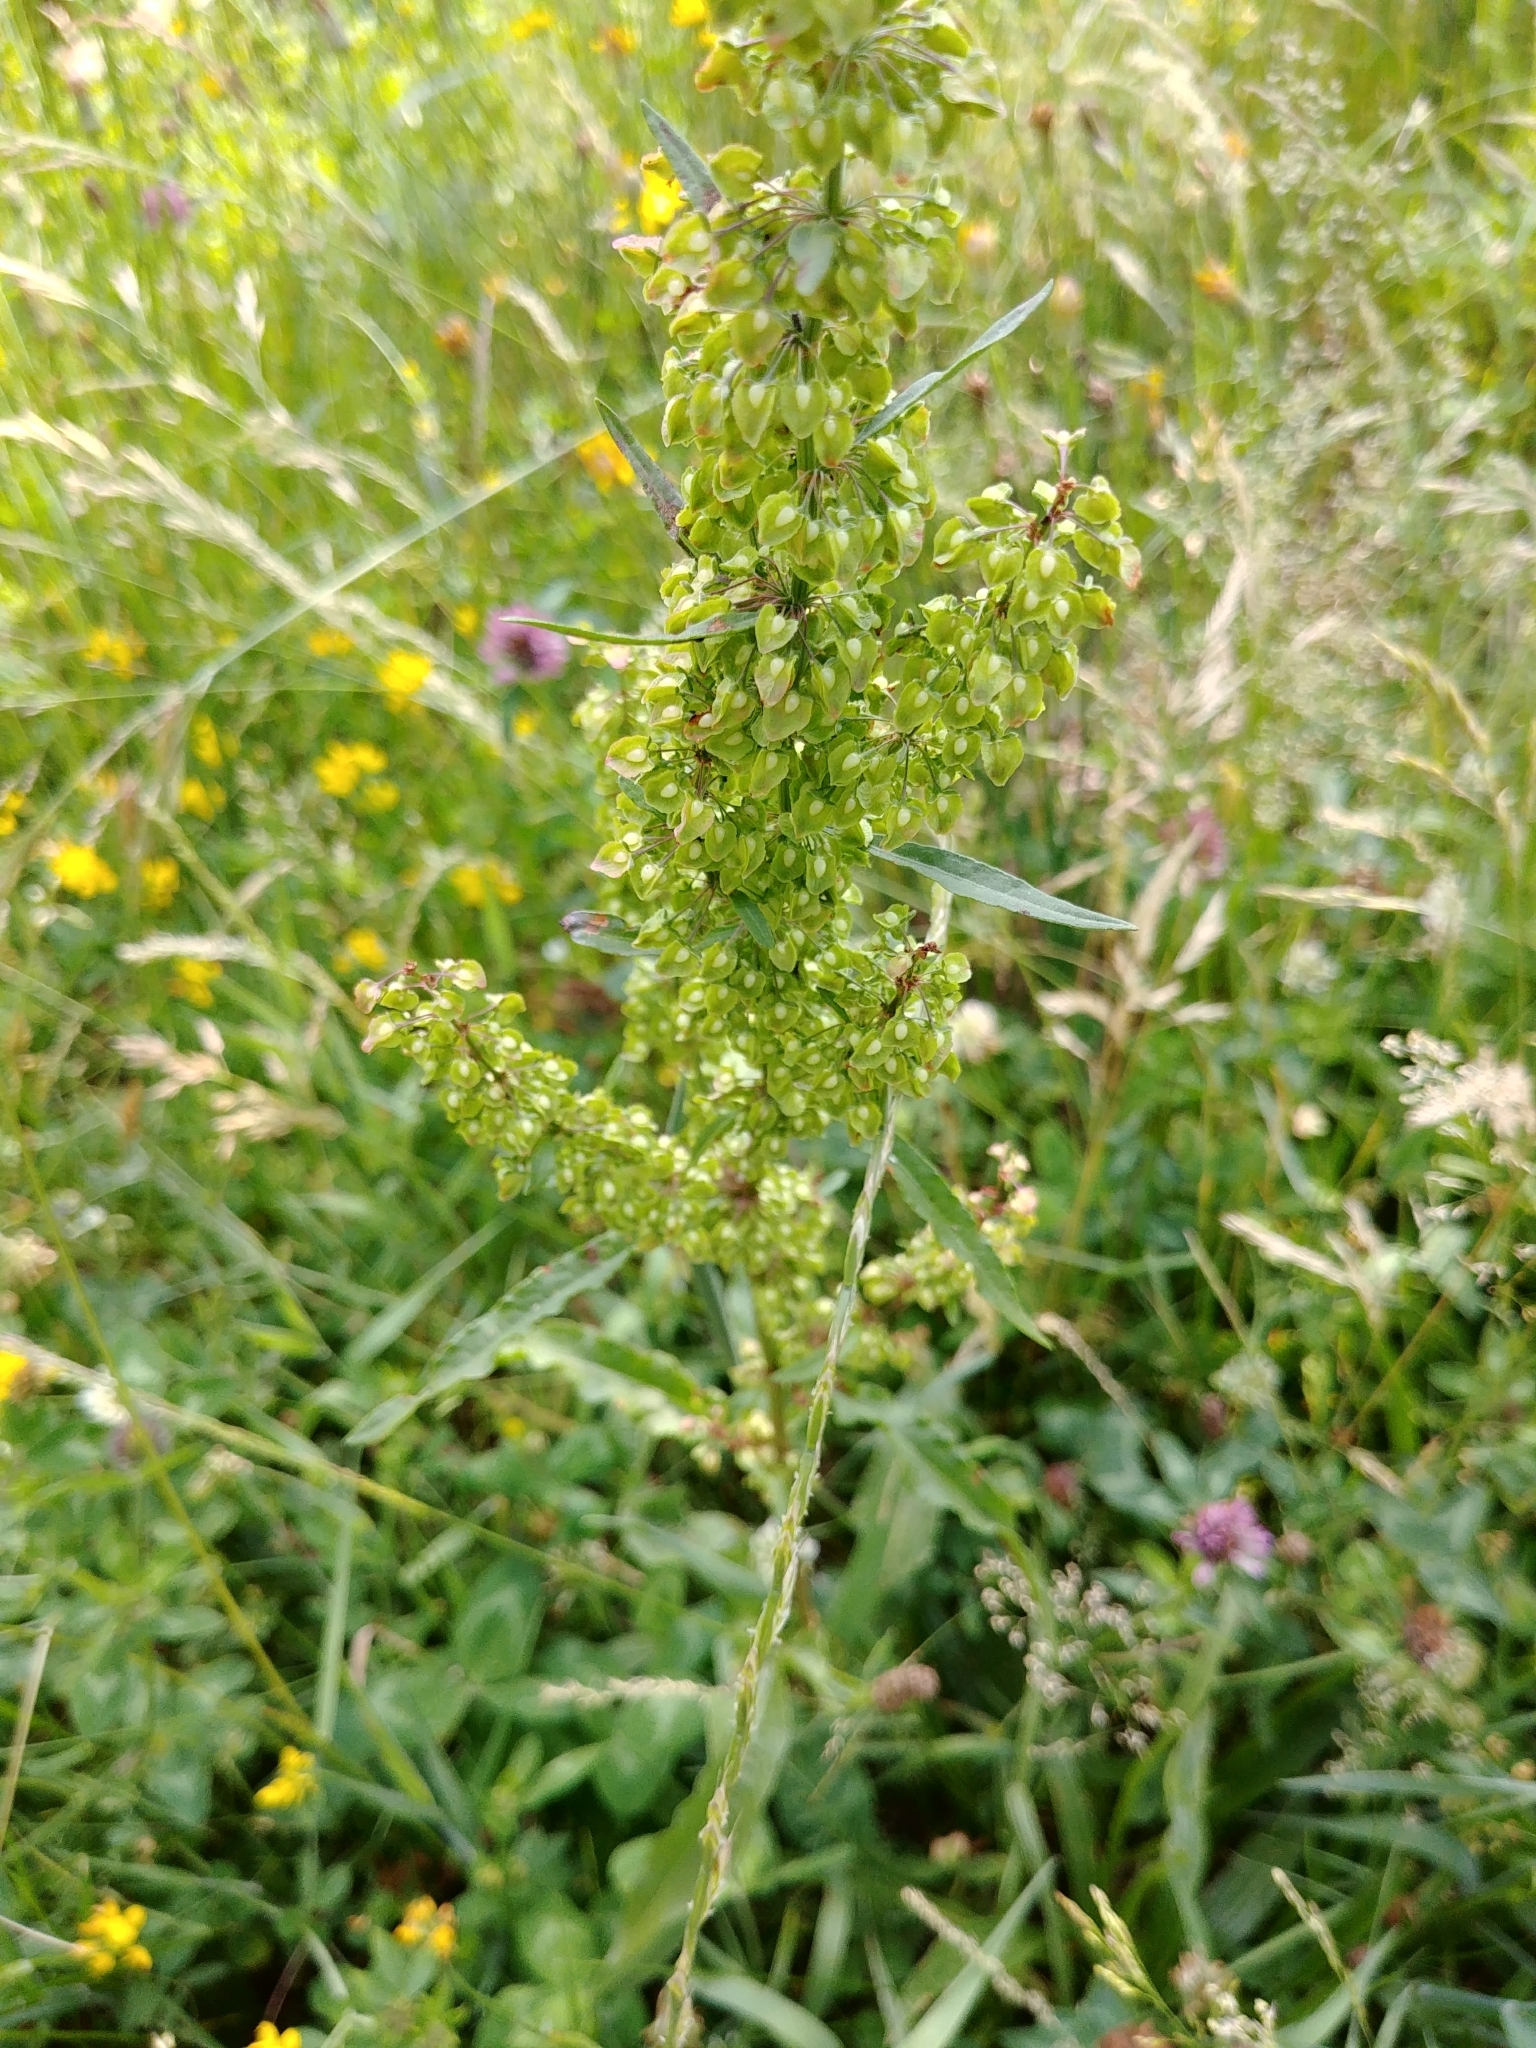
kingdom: Plantae
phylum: Tracheophyta
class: Magnoliopsida
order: Caryophyllales
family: Polygonaceae
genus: Rumex
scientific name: Rumex crispus
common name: Curled dock
